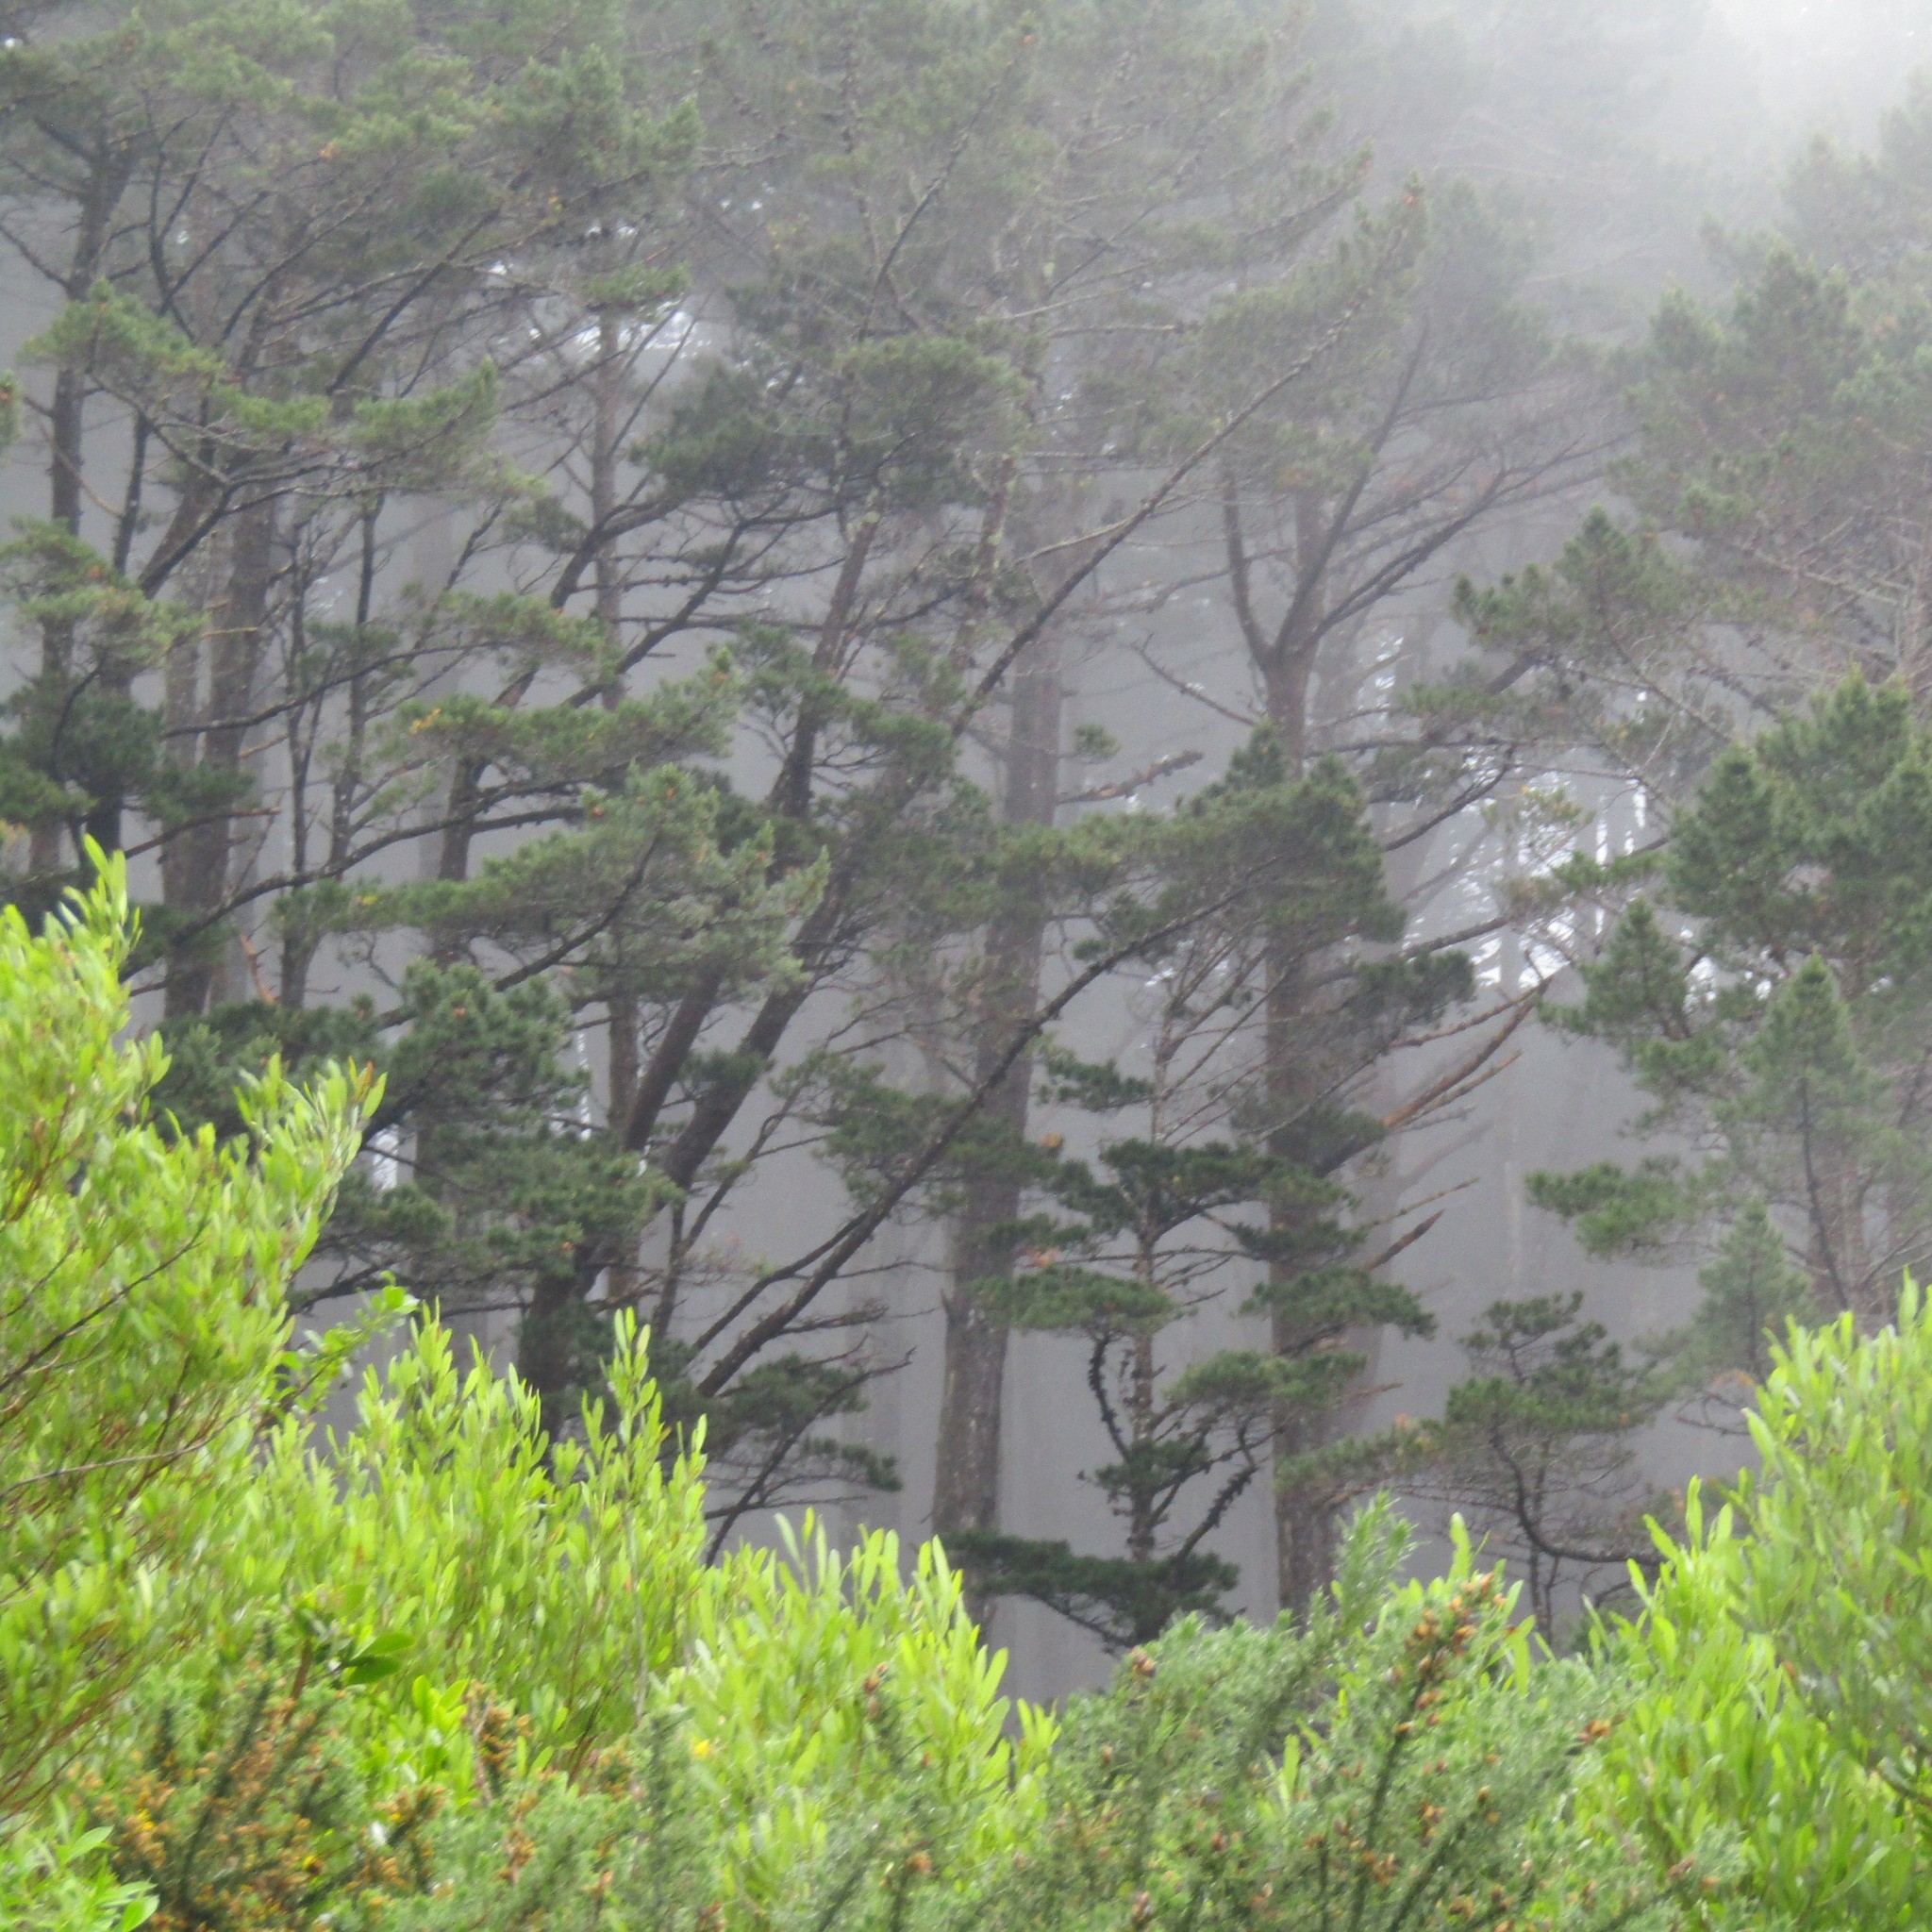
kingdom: Plantae
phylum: Tracheophyta
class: Magnoliopsida
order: Sapindales
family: Sapindaceae
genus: Dodonaea
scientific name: Dodonaea viscosa
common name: Hopbush
